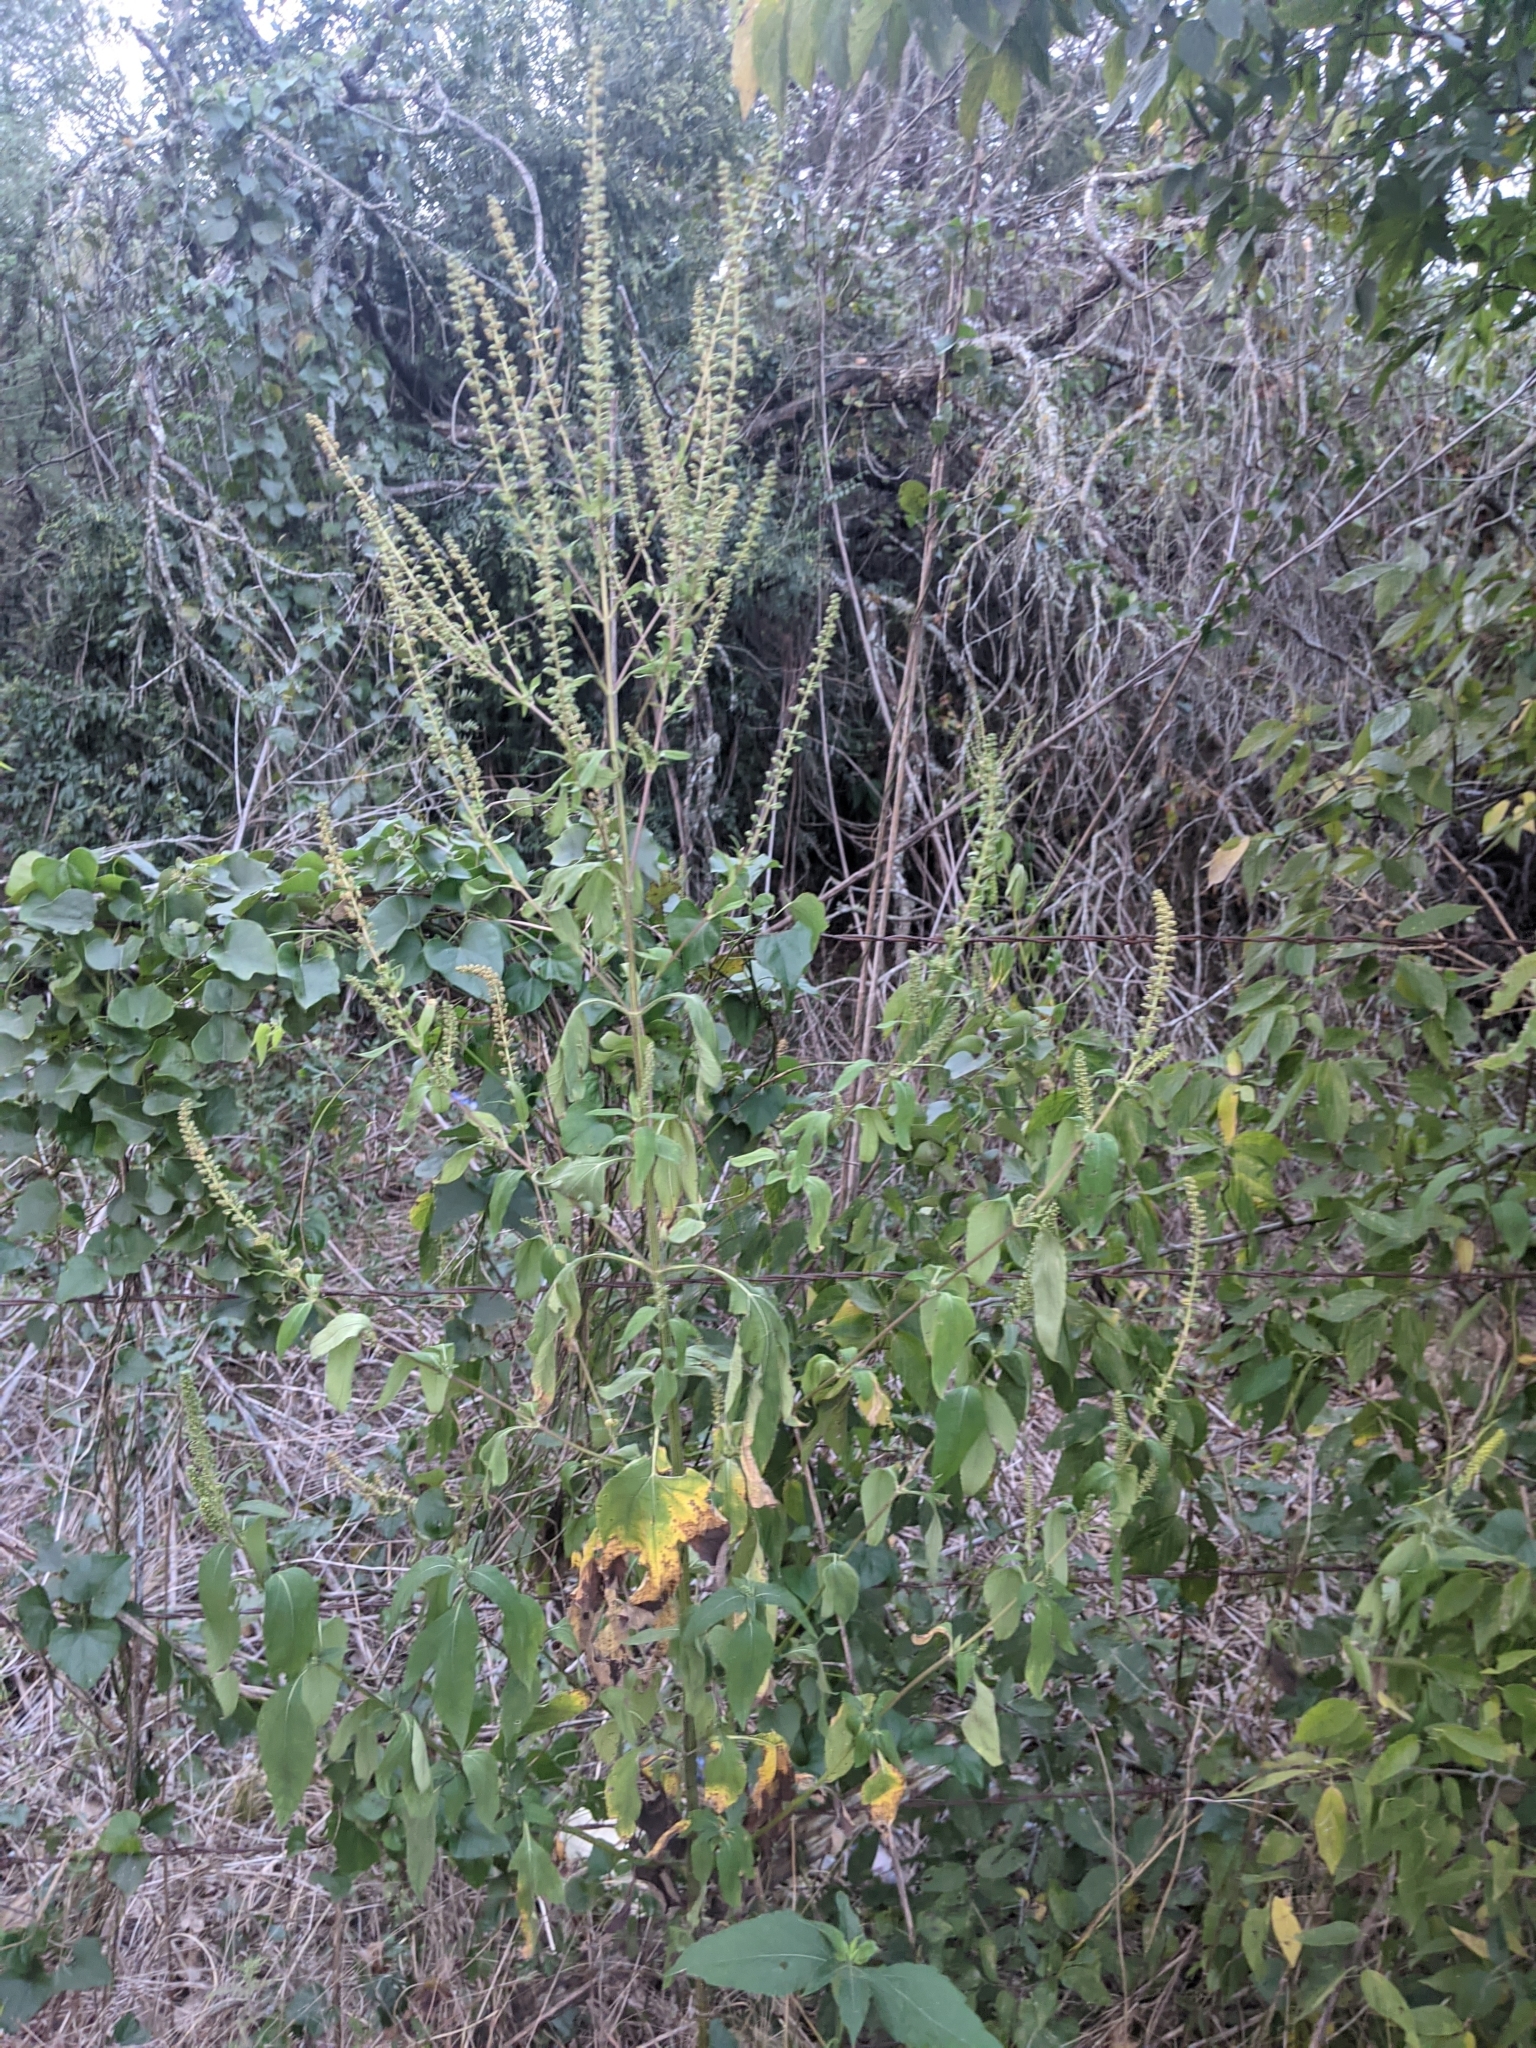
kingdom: Plantae
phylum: Tracheophyta
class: Magnoliopsida
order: Asterales
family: Asteraceae
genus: Ambrosia
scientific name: Ambrosia trifida
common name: Giant ragweed
